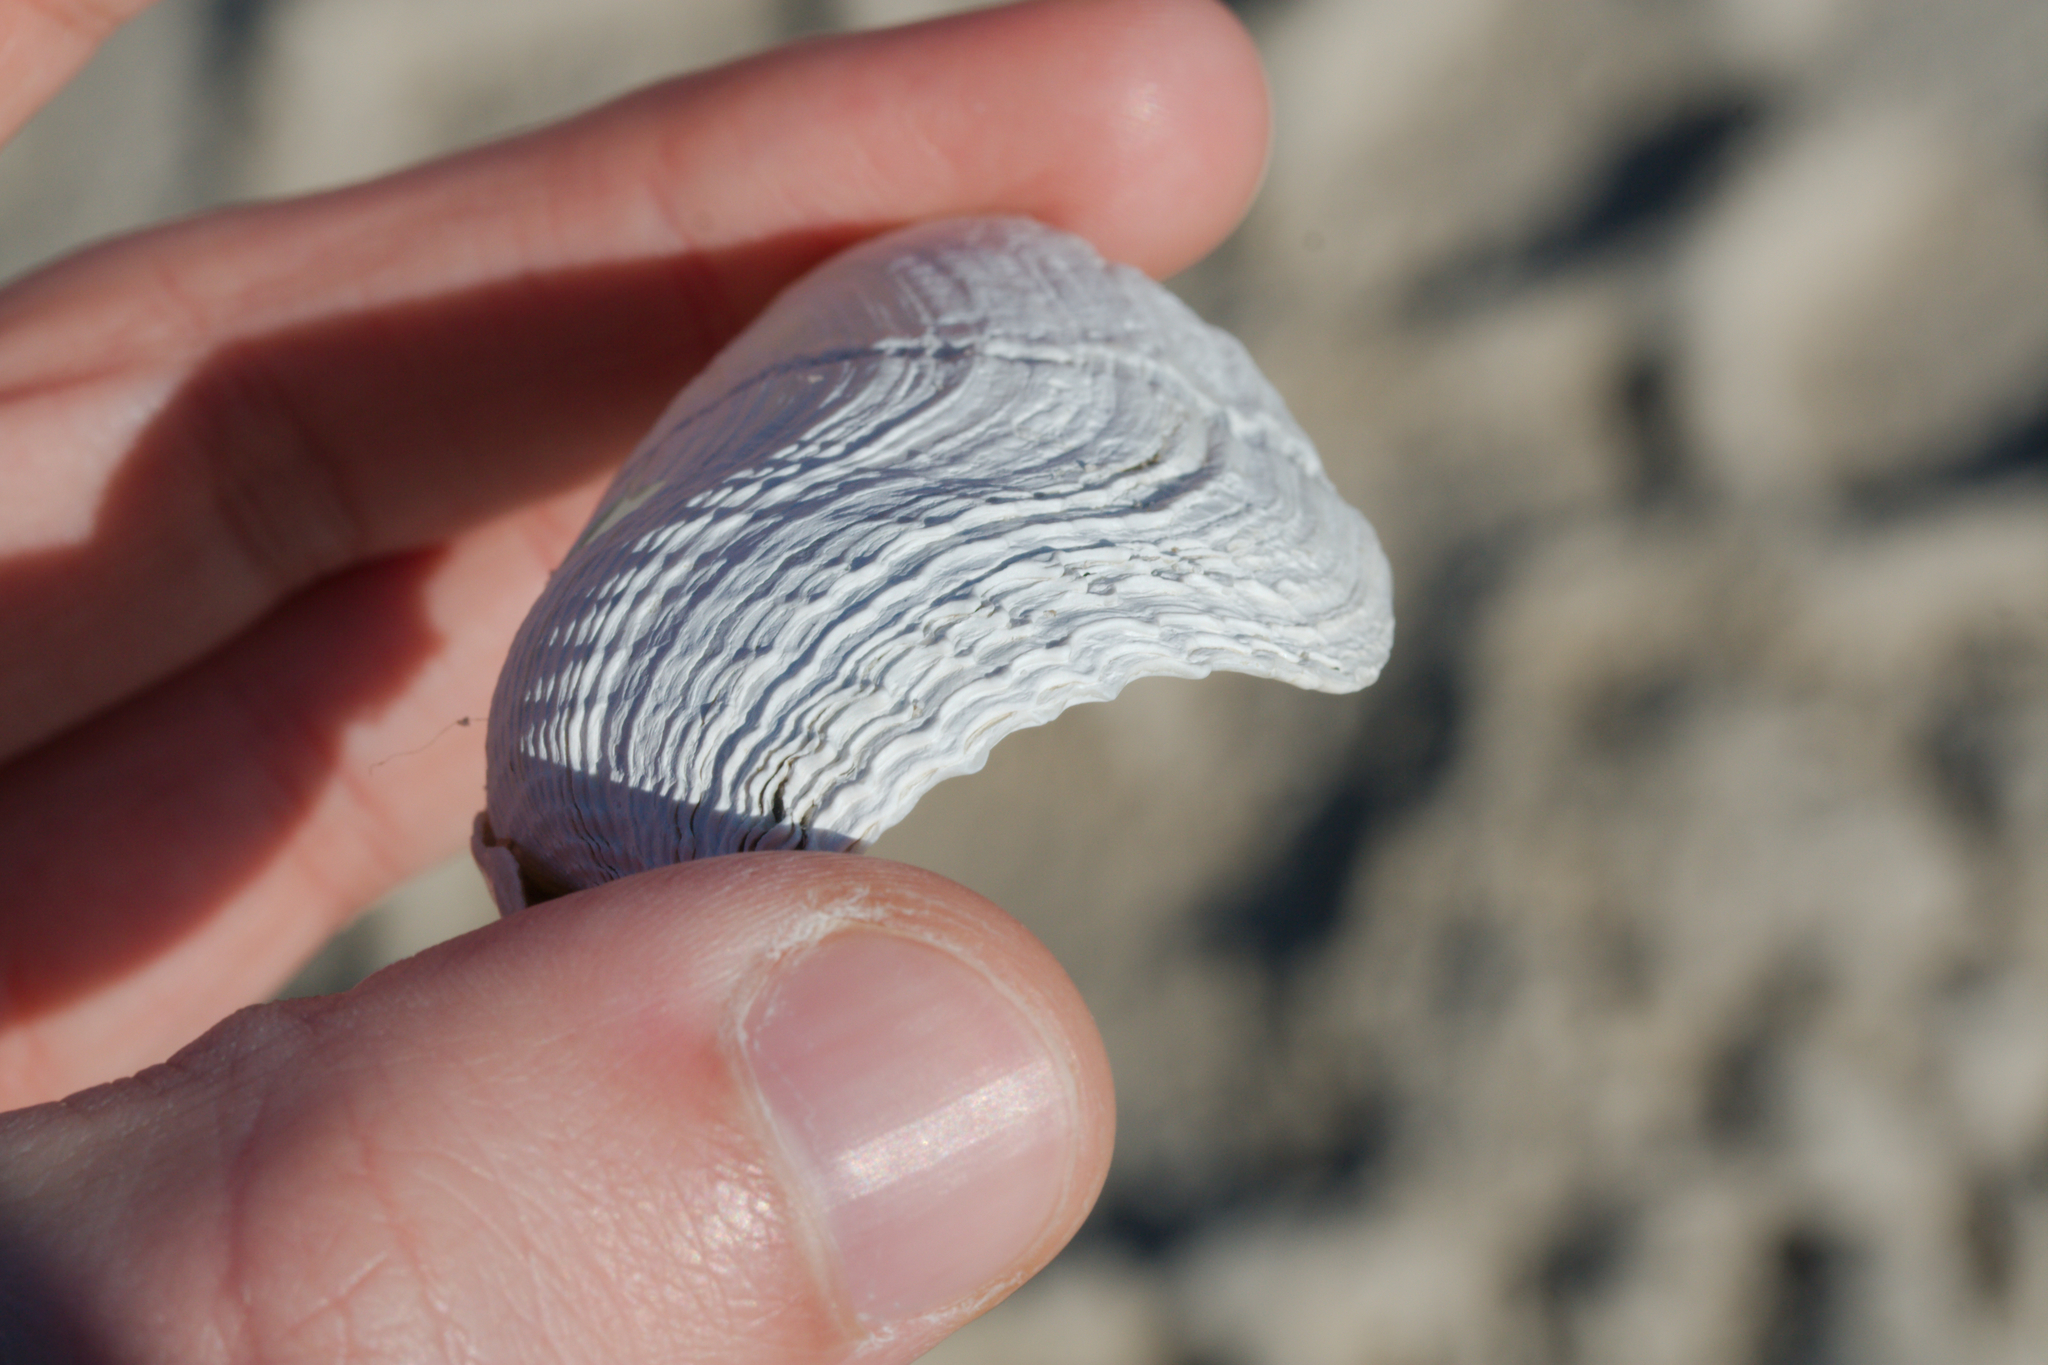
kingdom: Animalia
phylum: Mollusca
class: Bivalvia
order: Myida
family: Pholadidae
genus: Zirfaea
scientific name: Zirfaea crispata
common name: Oval piddock
